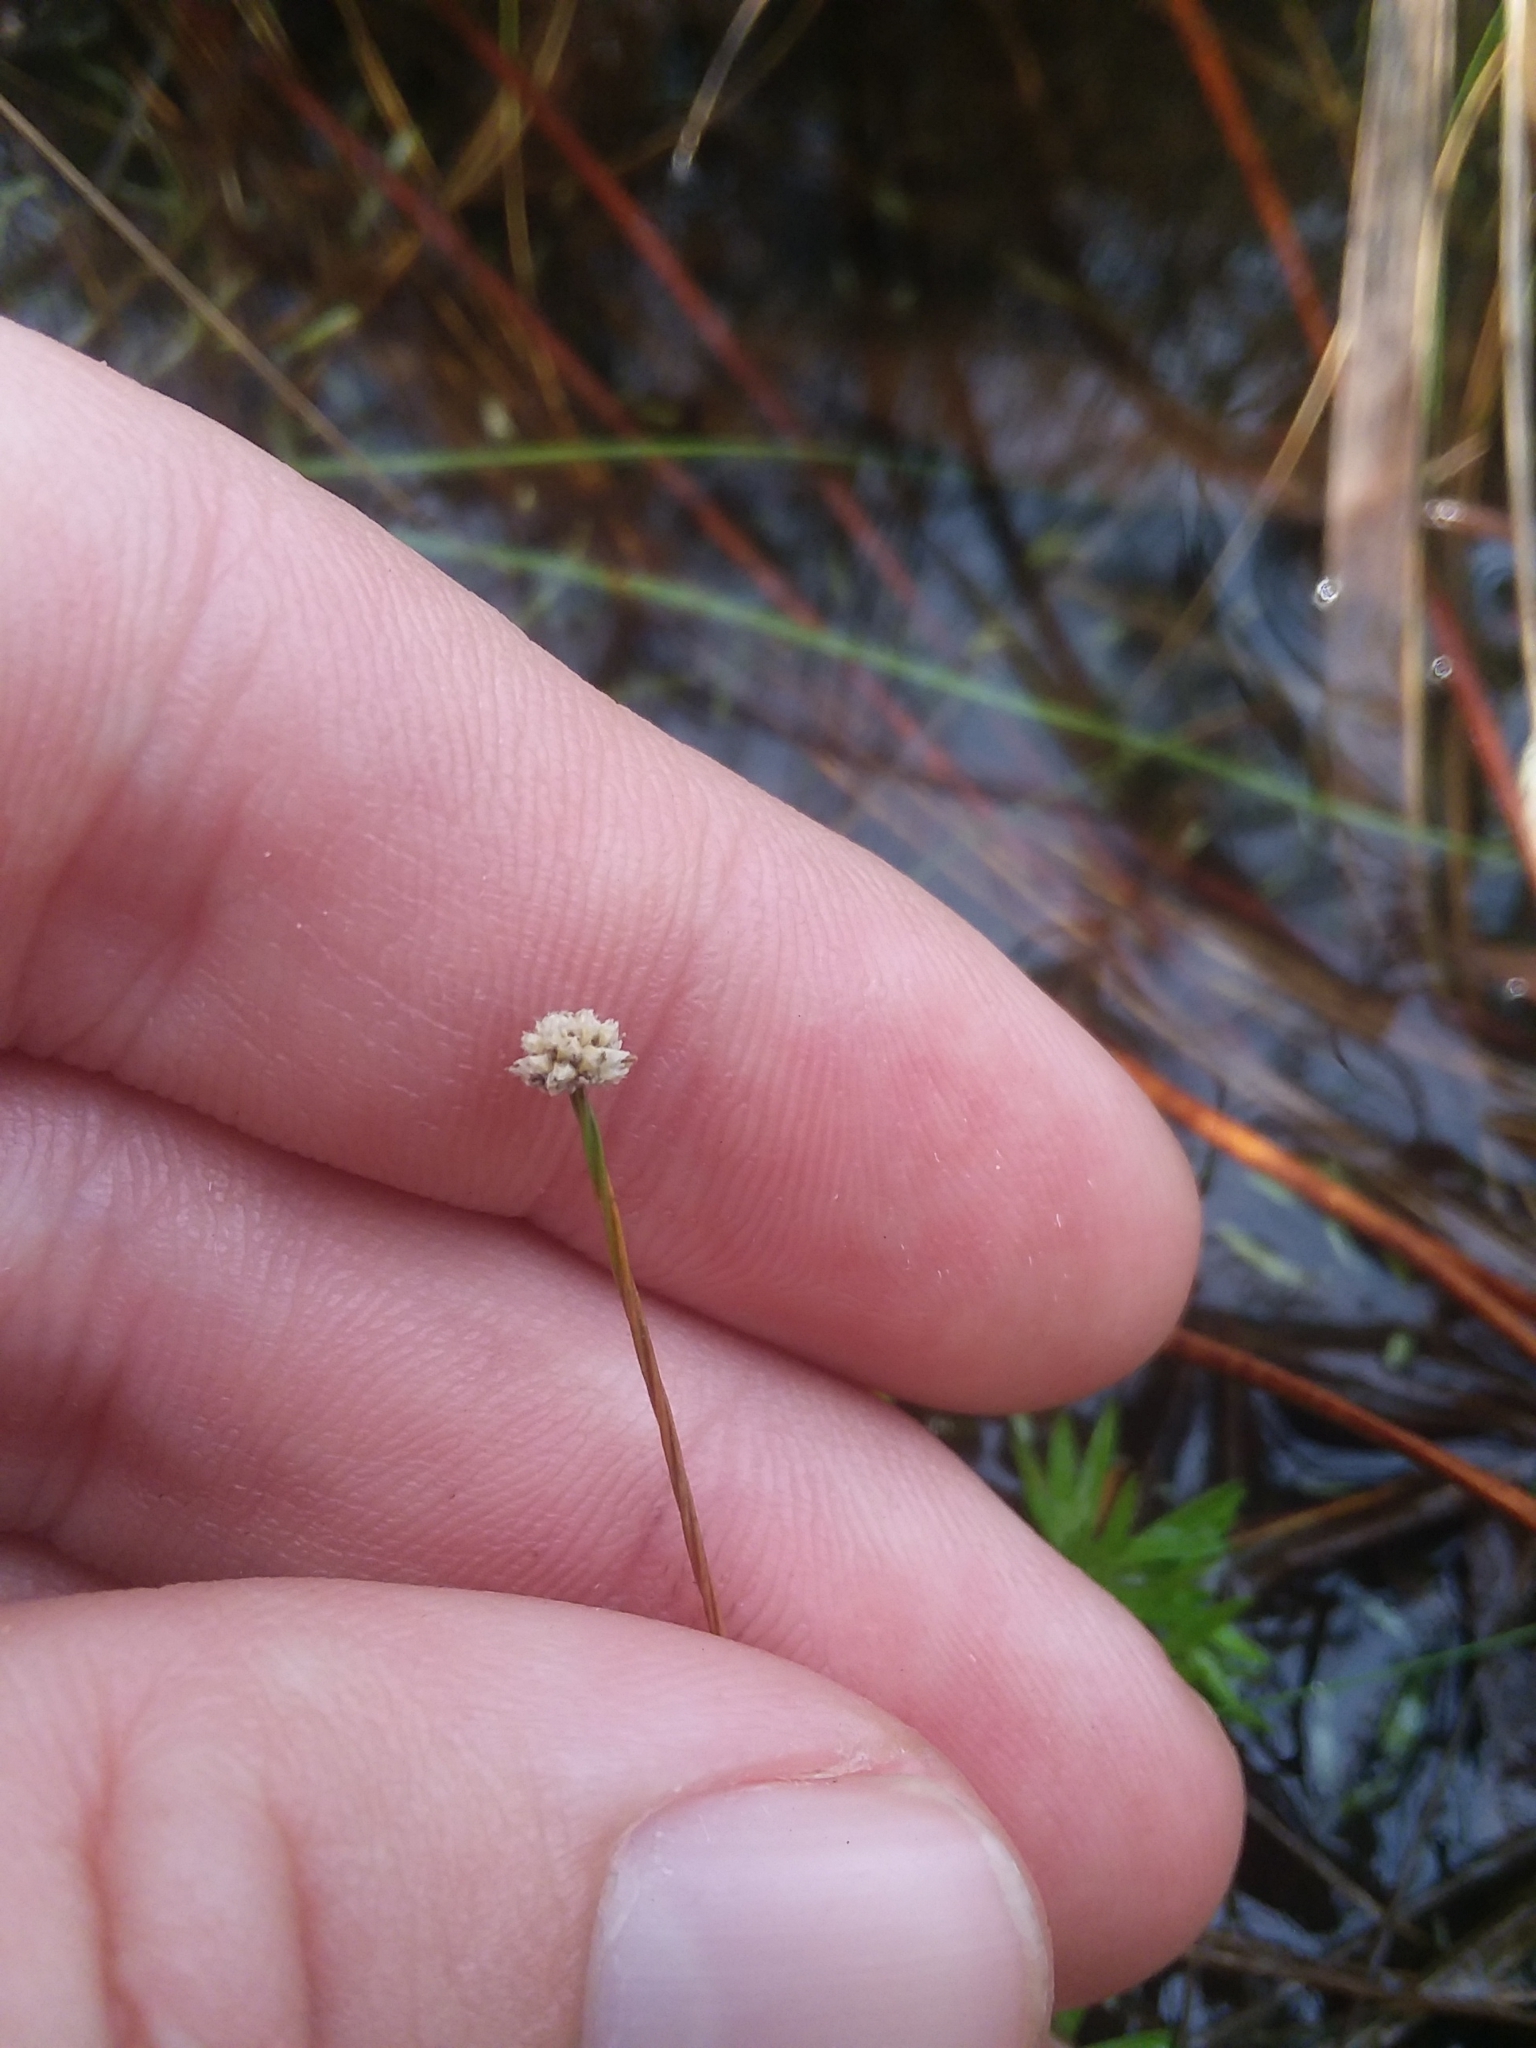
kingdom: Plantae
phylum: Tracheophyta
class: Liliopsida
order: Poales
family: Eriocaulaceae
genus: Paepalanthus
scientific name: Paepalanthus digynus
